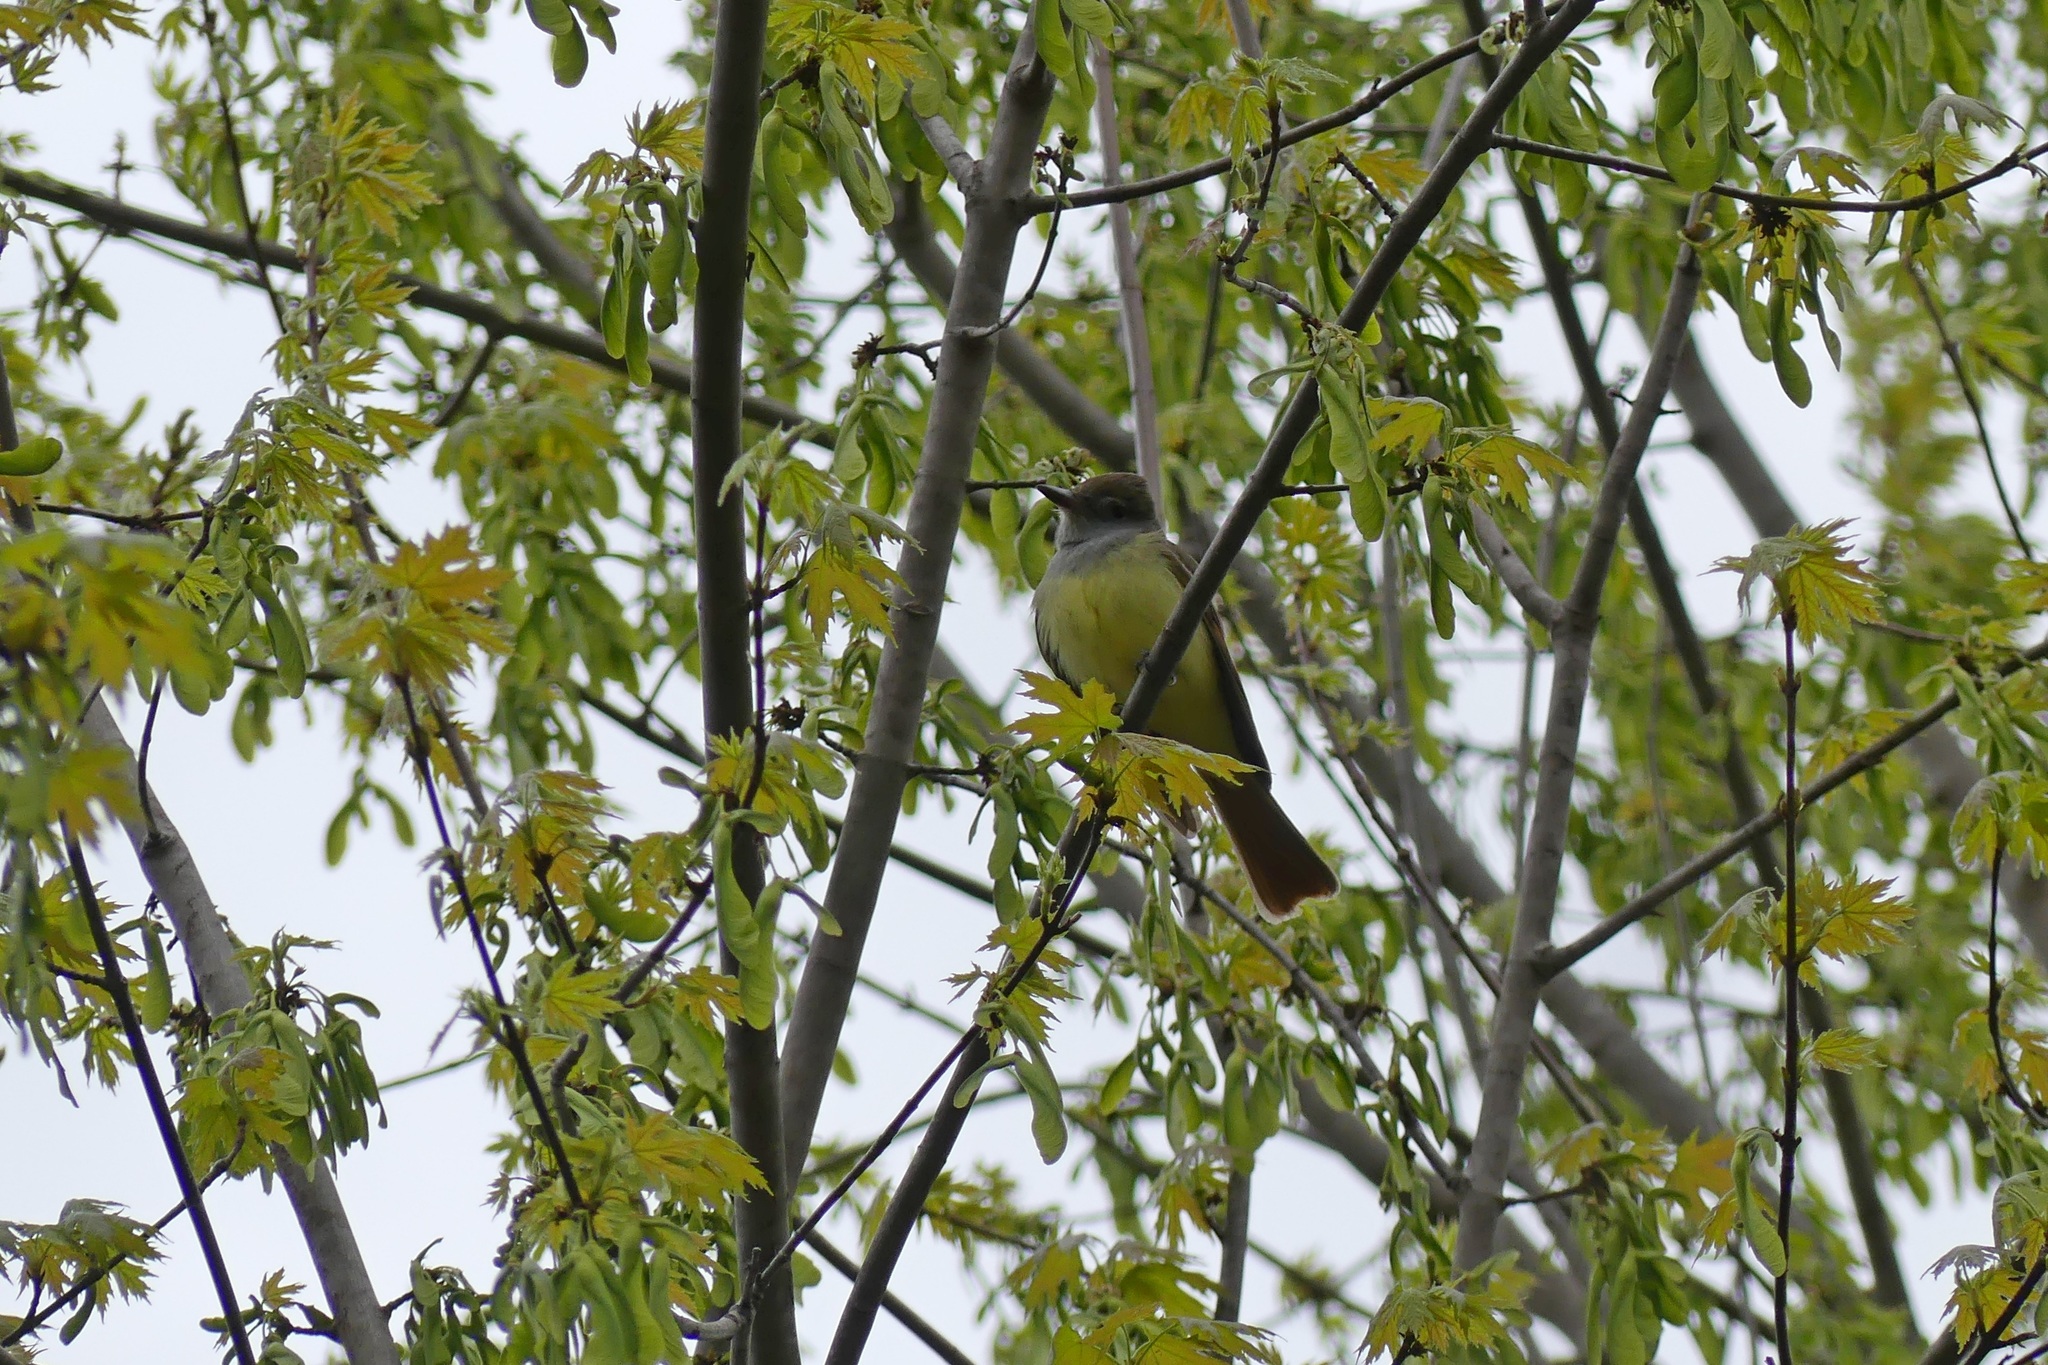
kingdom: Animalia
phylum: Chordata
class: Aves
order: Passeriformes
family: Tyrannidae
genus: Myiarchus
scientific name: Myiarchus crinitus
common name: Great crested flycatcher
